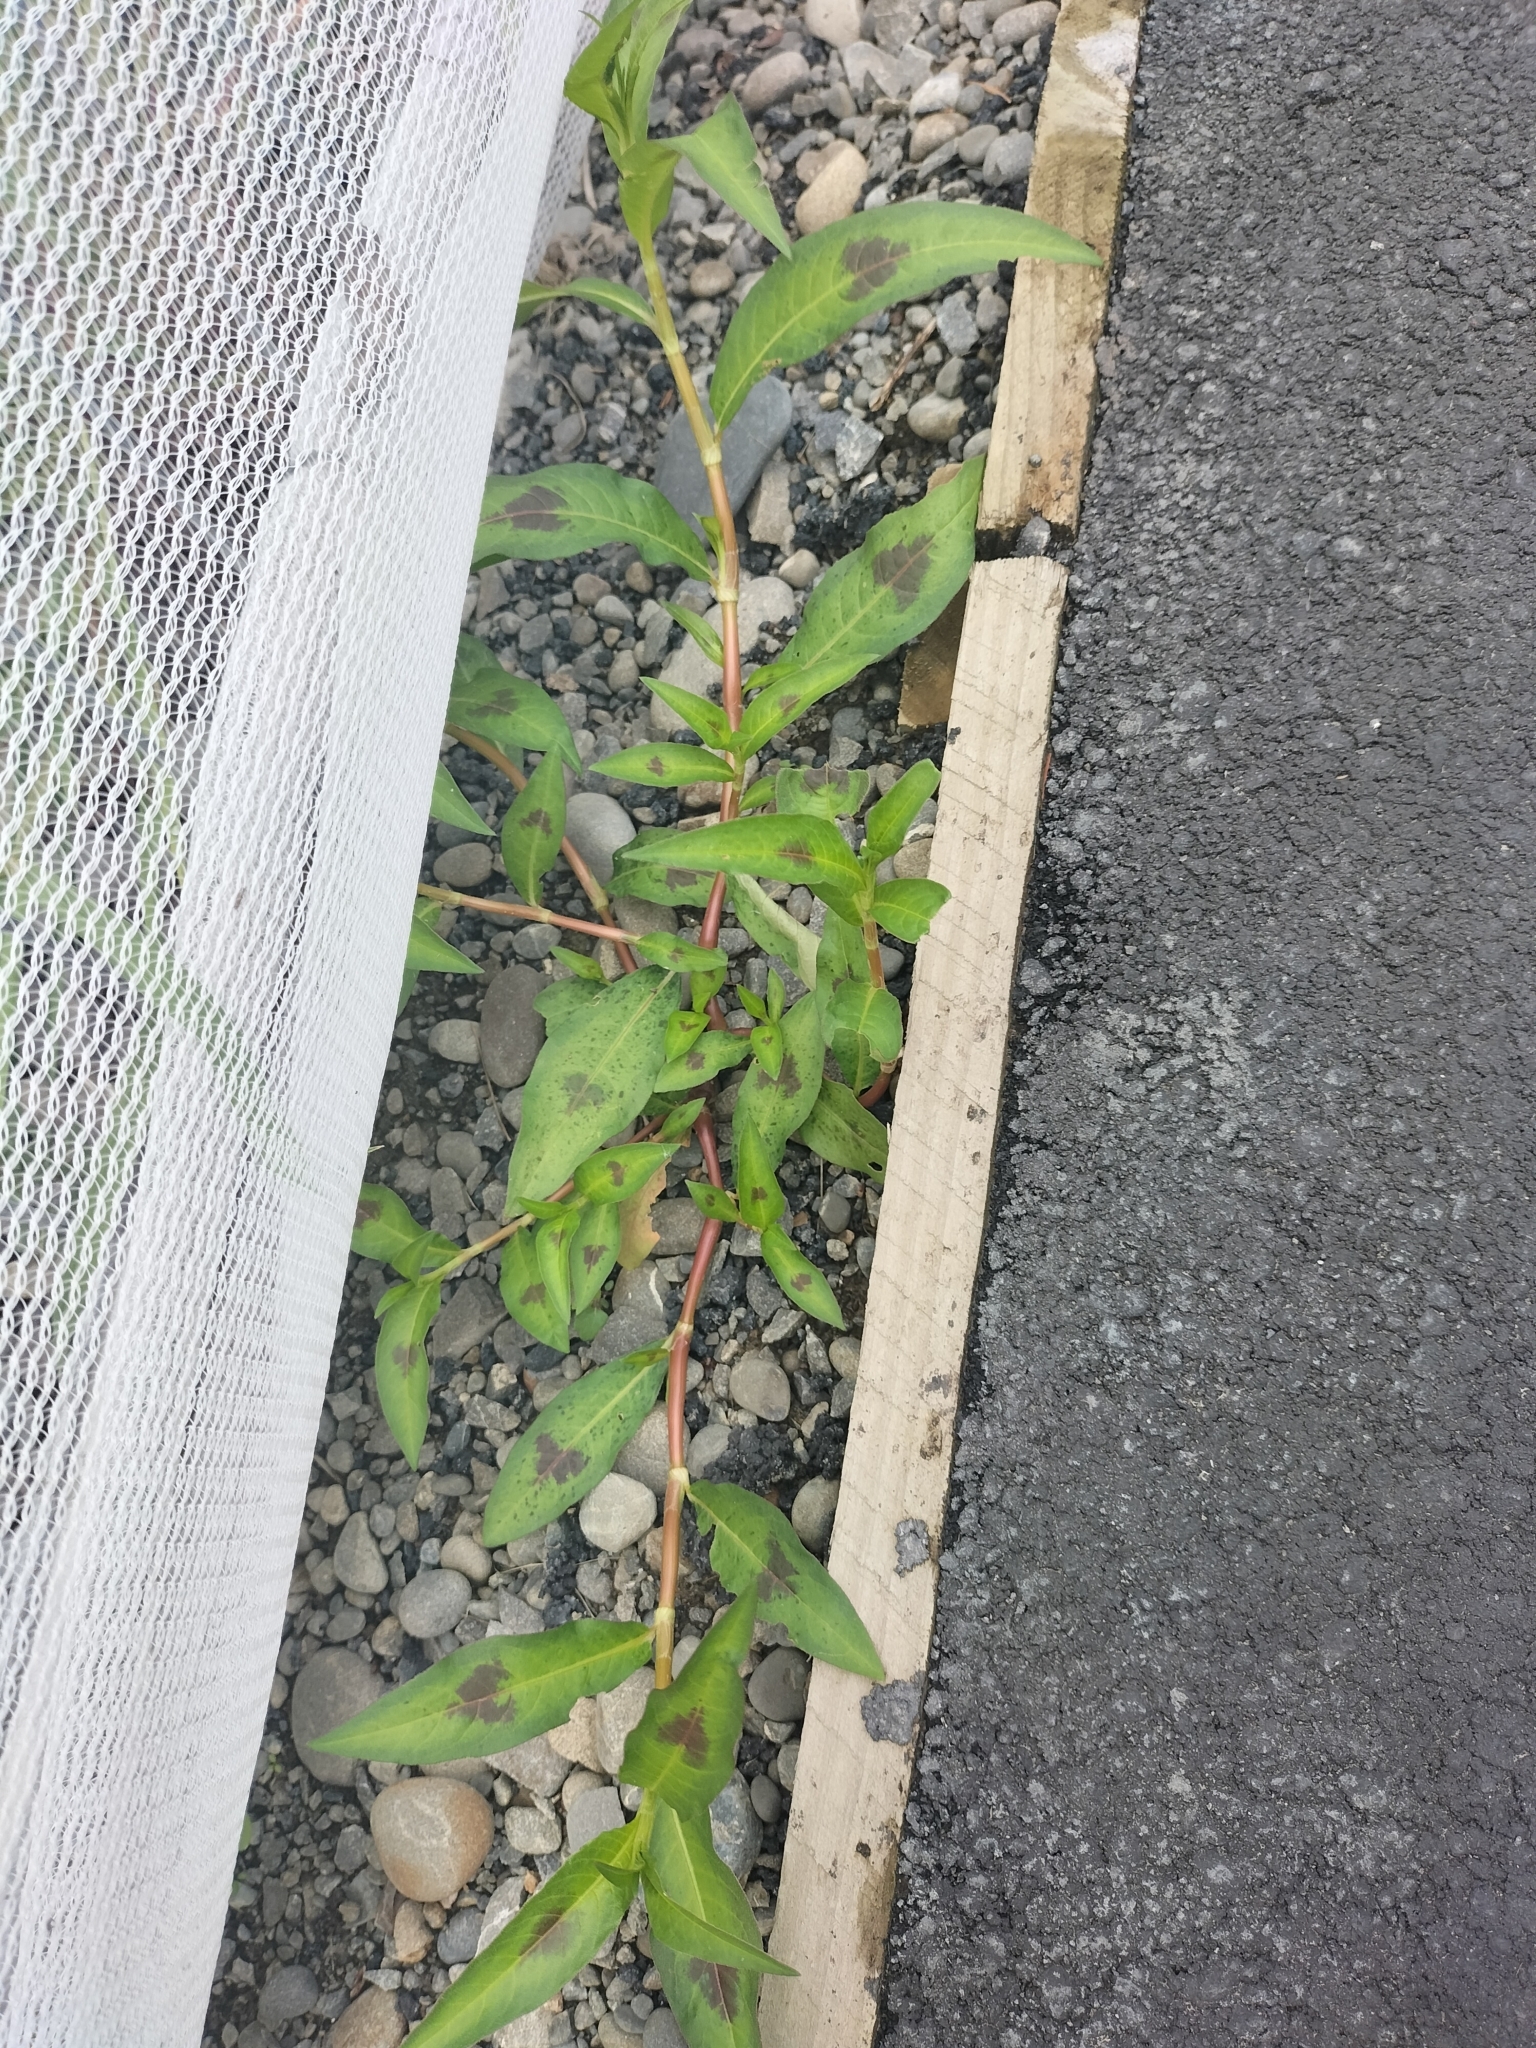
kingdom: Plantae
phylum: Tracheophyta
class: Magnoliopsida
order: Caryophyllales
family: Polygonaceae
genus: Persicaria
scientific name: Persicaria maculosa
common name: Redshank
